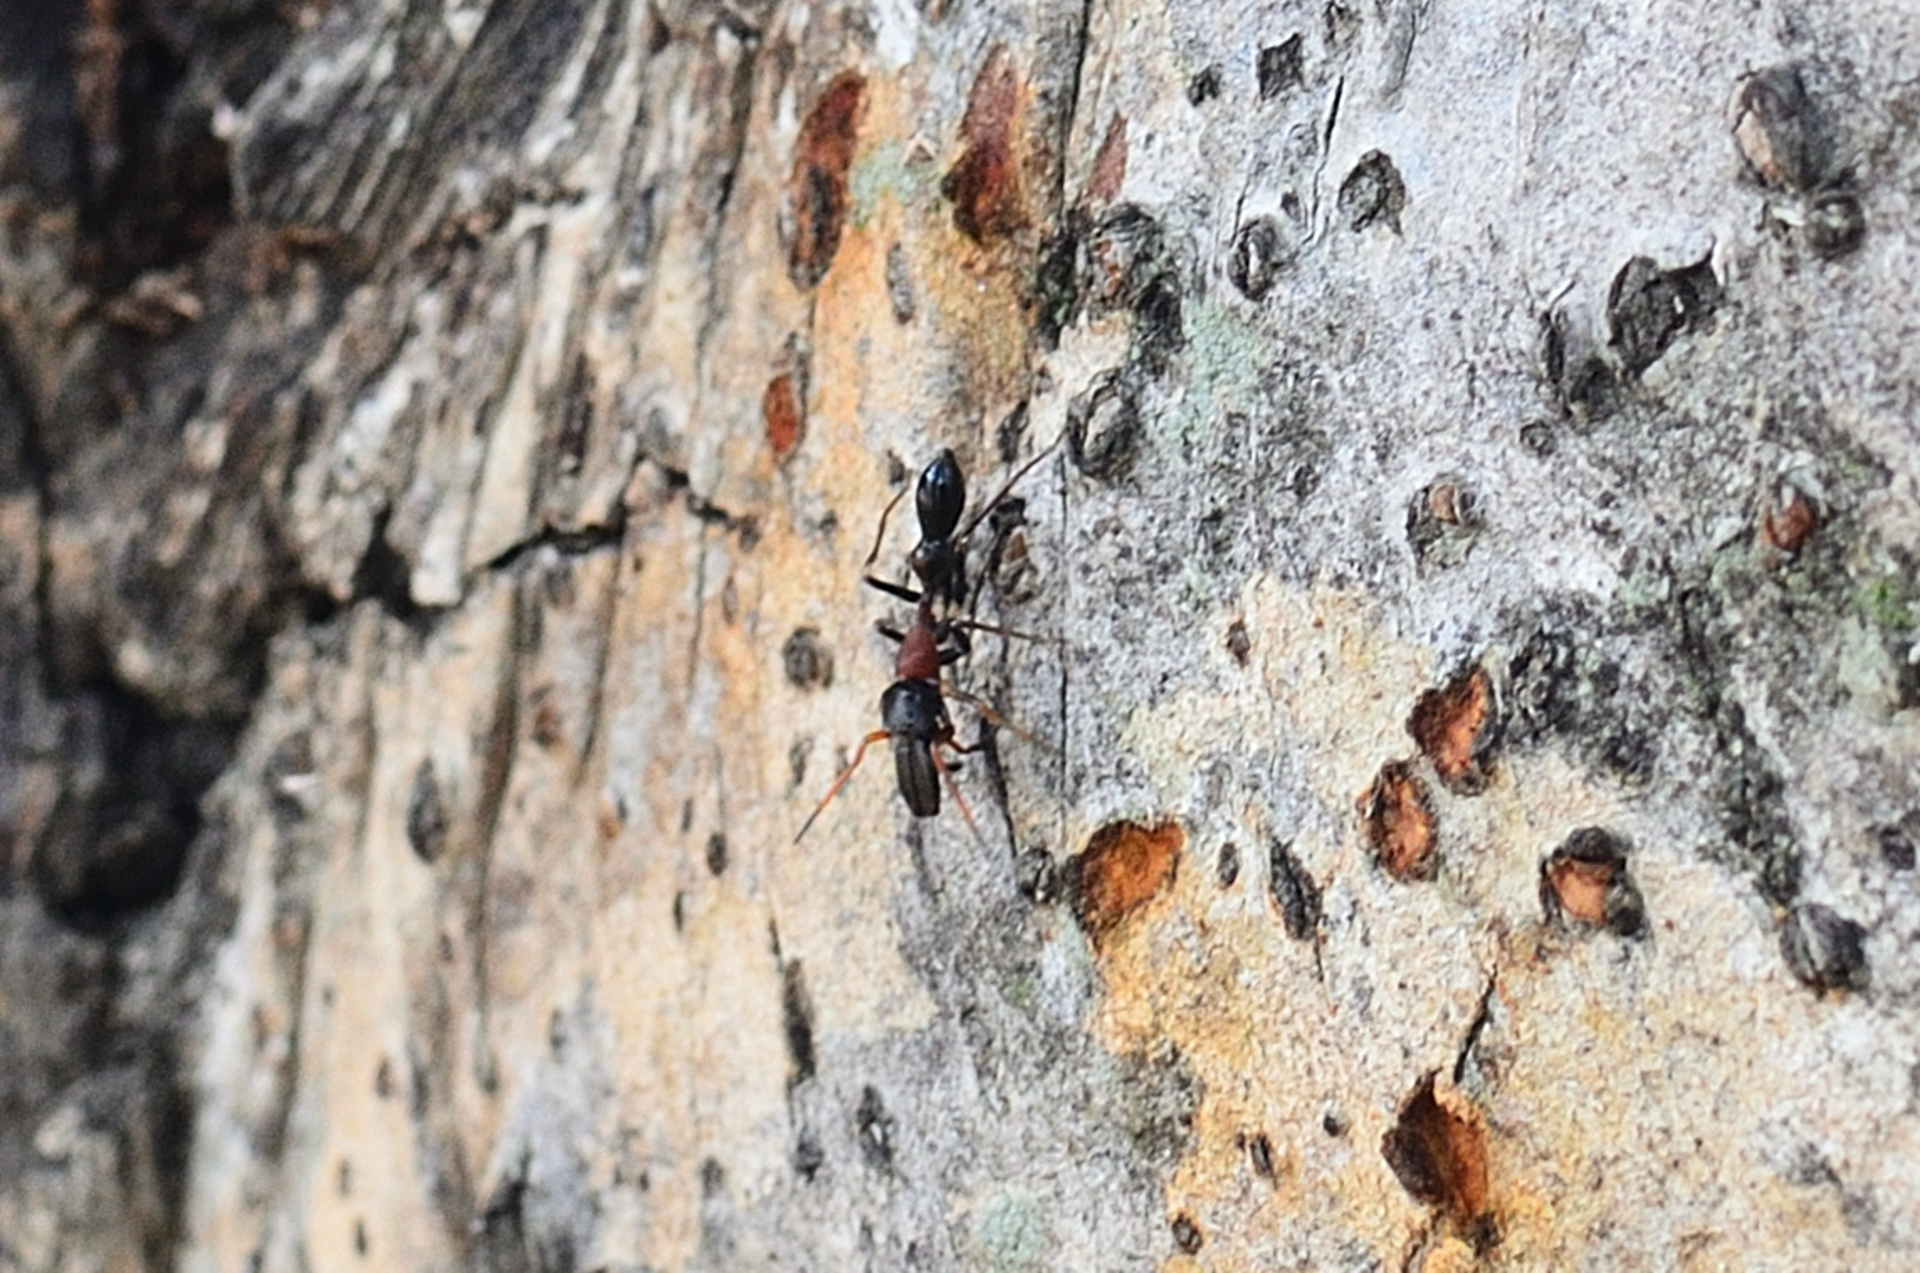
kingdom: Animalia
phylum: Arthropoda
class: Arachnida
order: Araneae
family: Salticidae
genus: Myrmarachne
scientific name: Myrmarachne melanocephala
